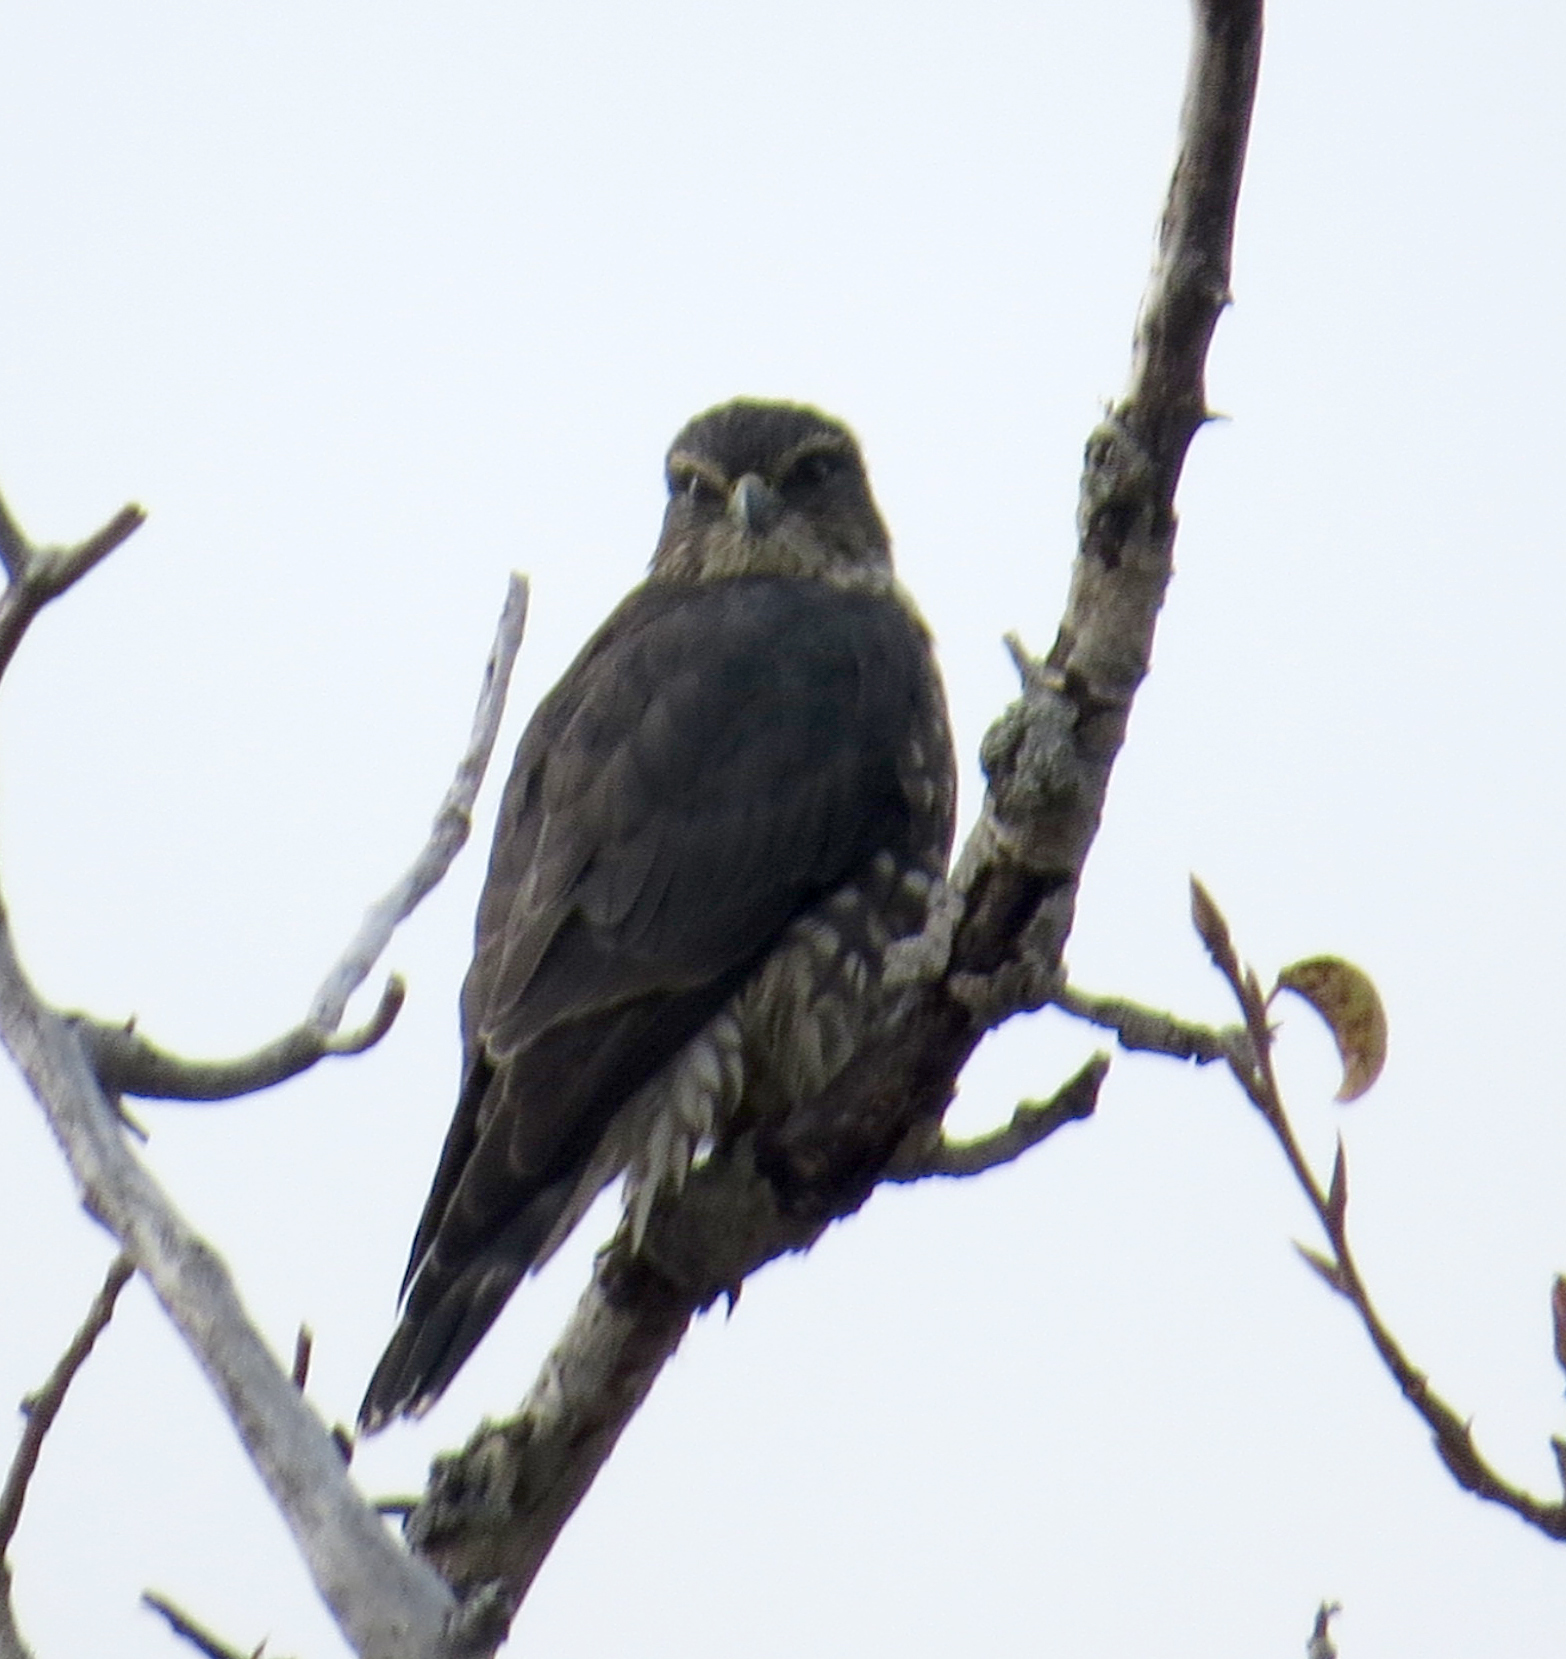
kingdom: Animalia
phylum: Chordata
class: Aves
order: Falconiformes
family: Falconidae
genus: Falco
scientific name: Falco columbarius
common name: Merlin
